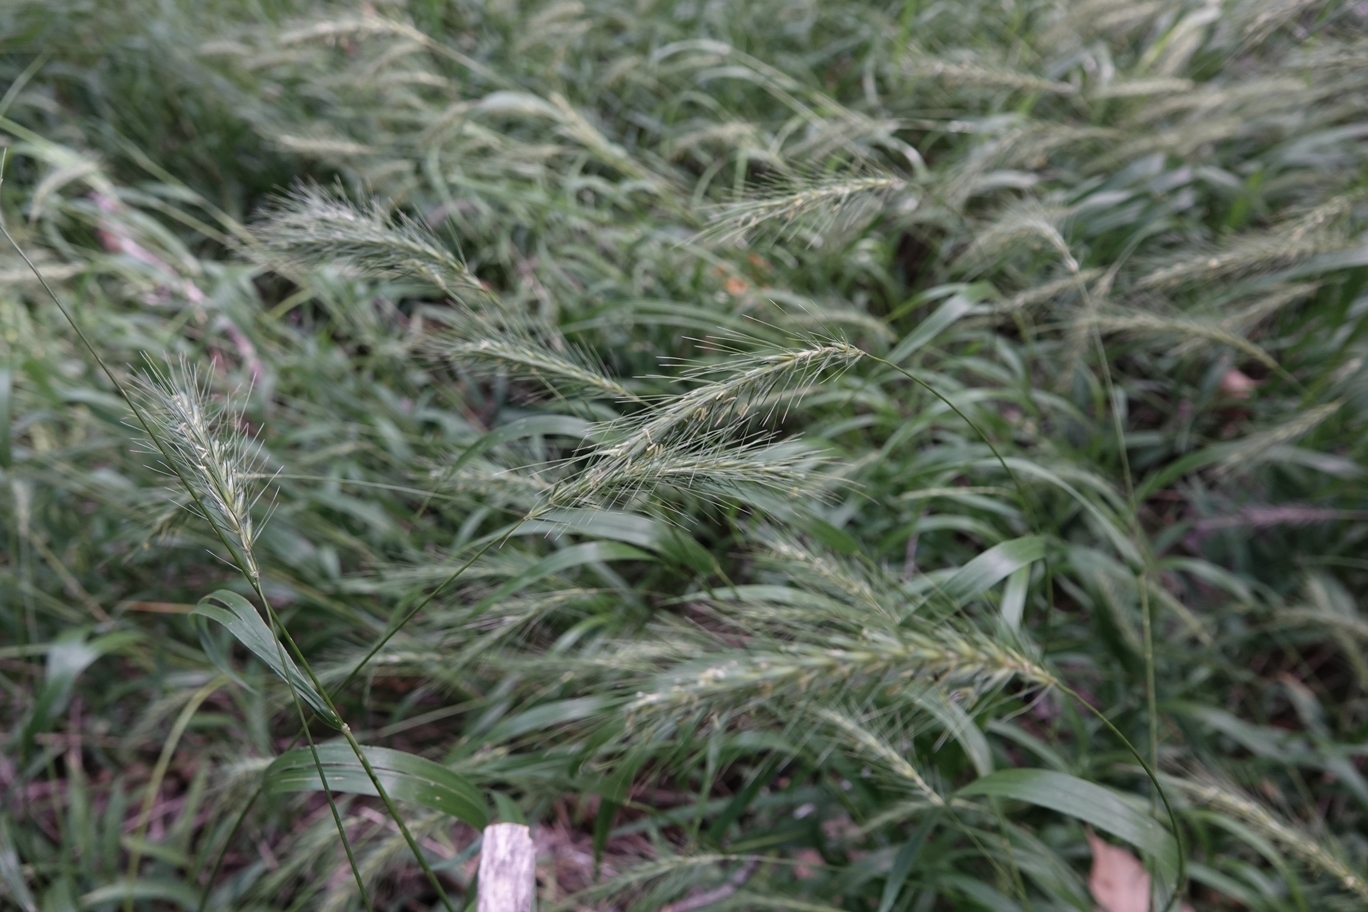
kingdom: Plantae
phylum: Tracheophyta
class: Liliopsida
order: Poales
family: Poaceae
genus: Elymus
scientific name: Elymus villosus
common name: Downy wild rye
